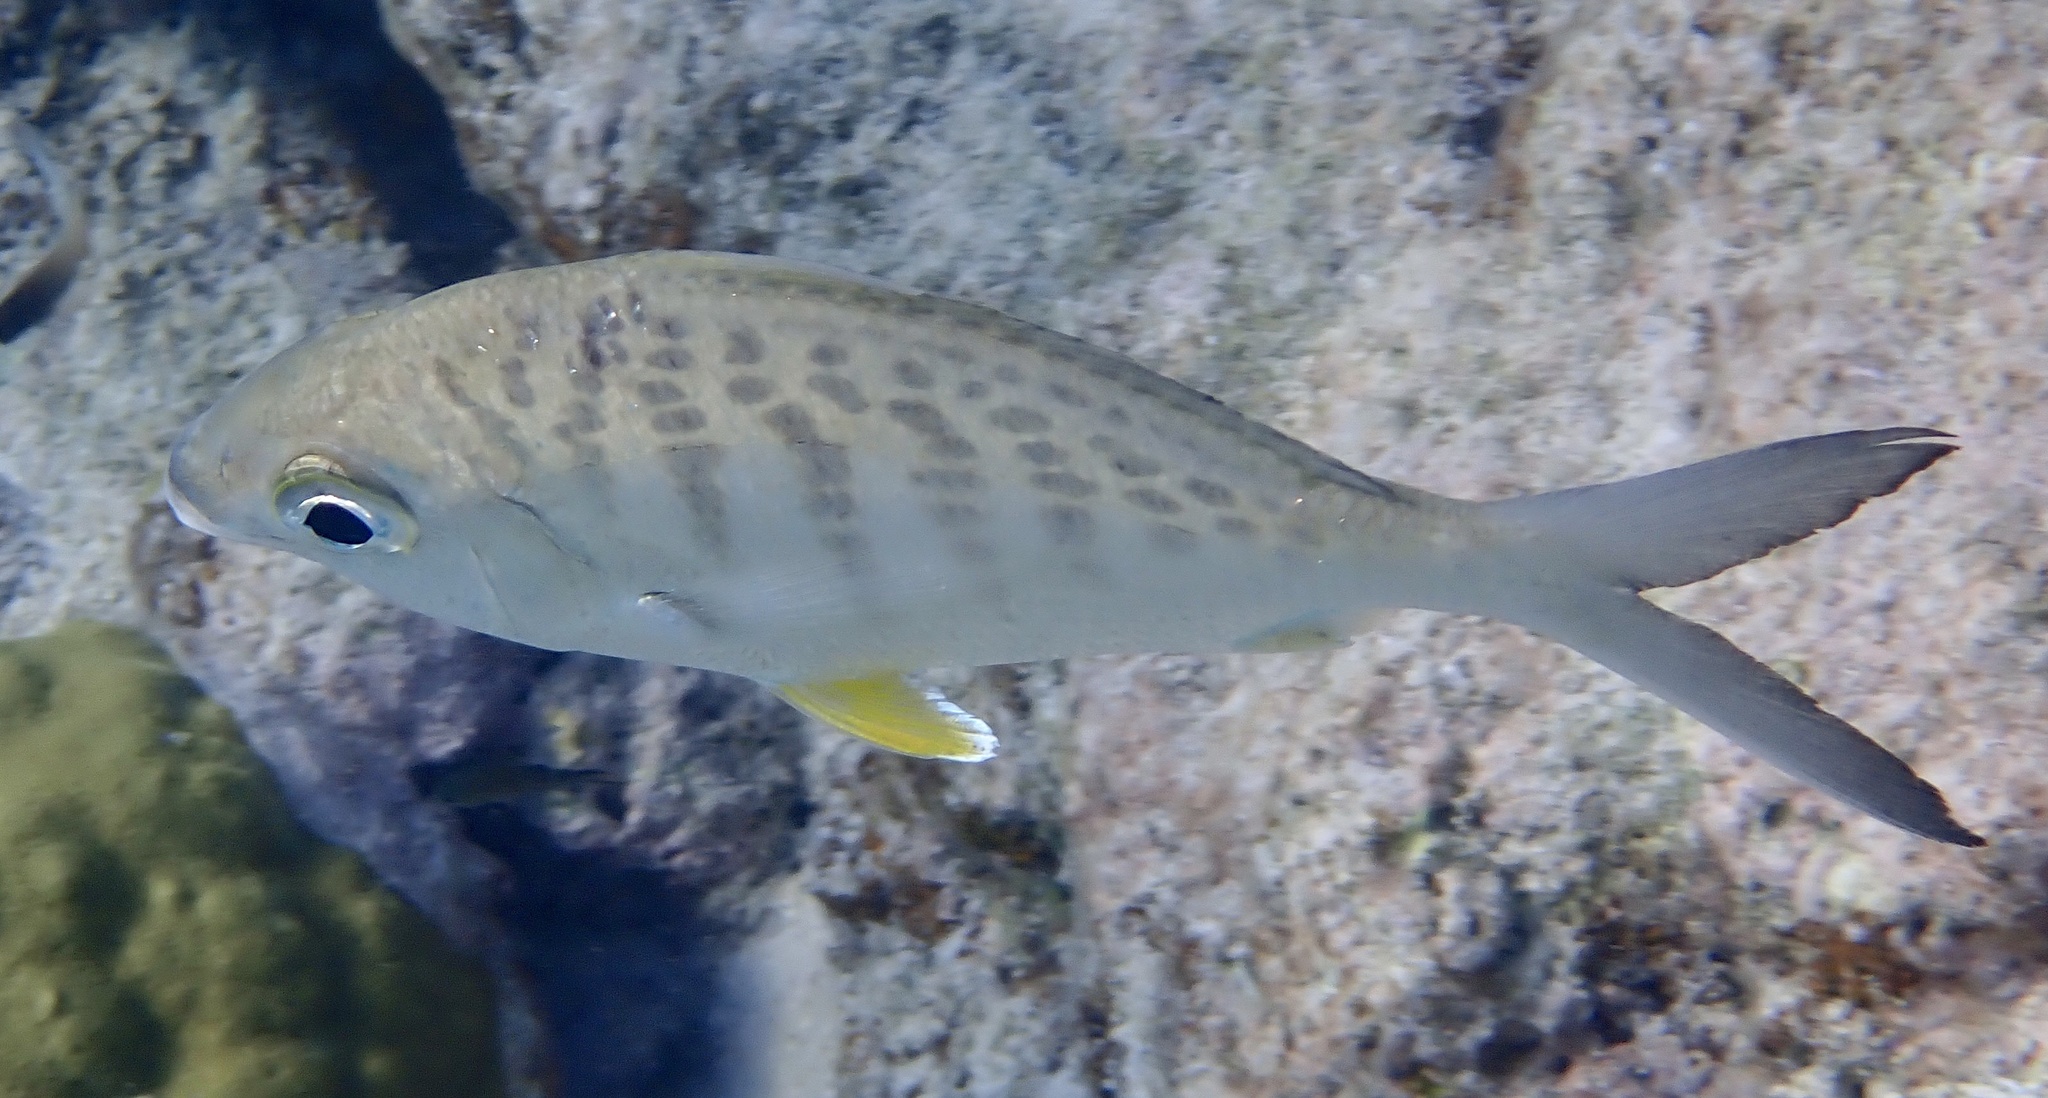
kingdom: Animalia
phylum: Chordata
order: Perciformes
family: Gerreidae
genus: Gerres
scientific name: Gerres cinereus
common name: Hedow
